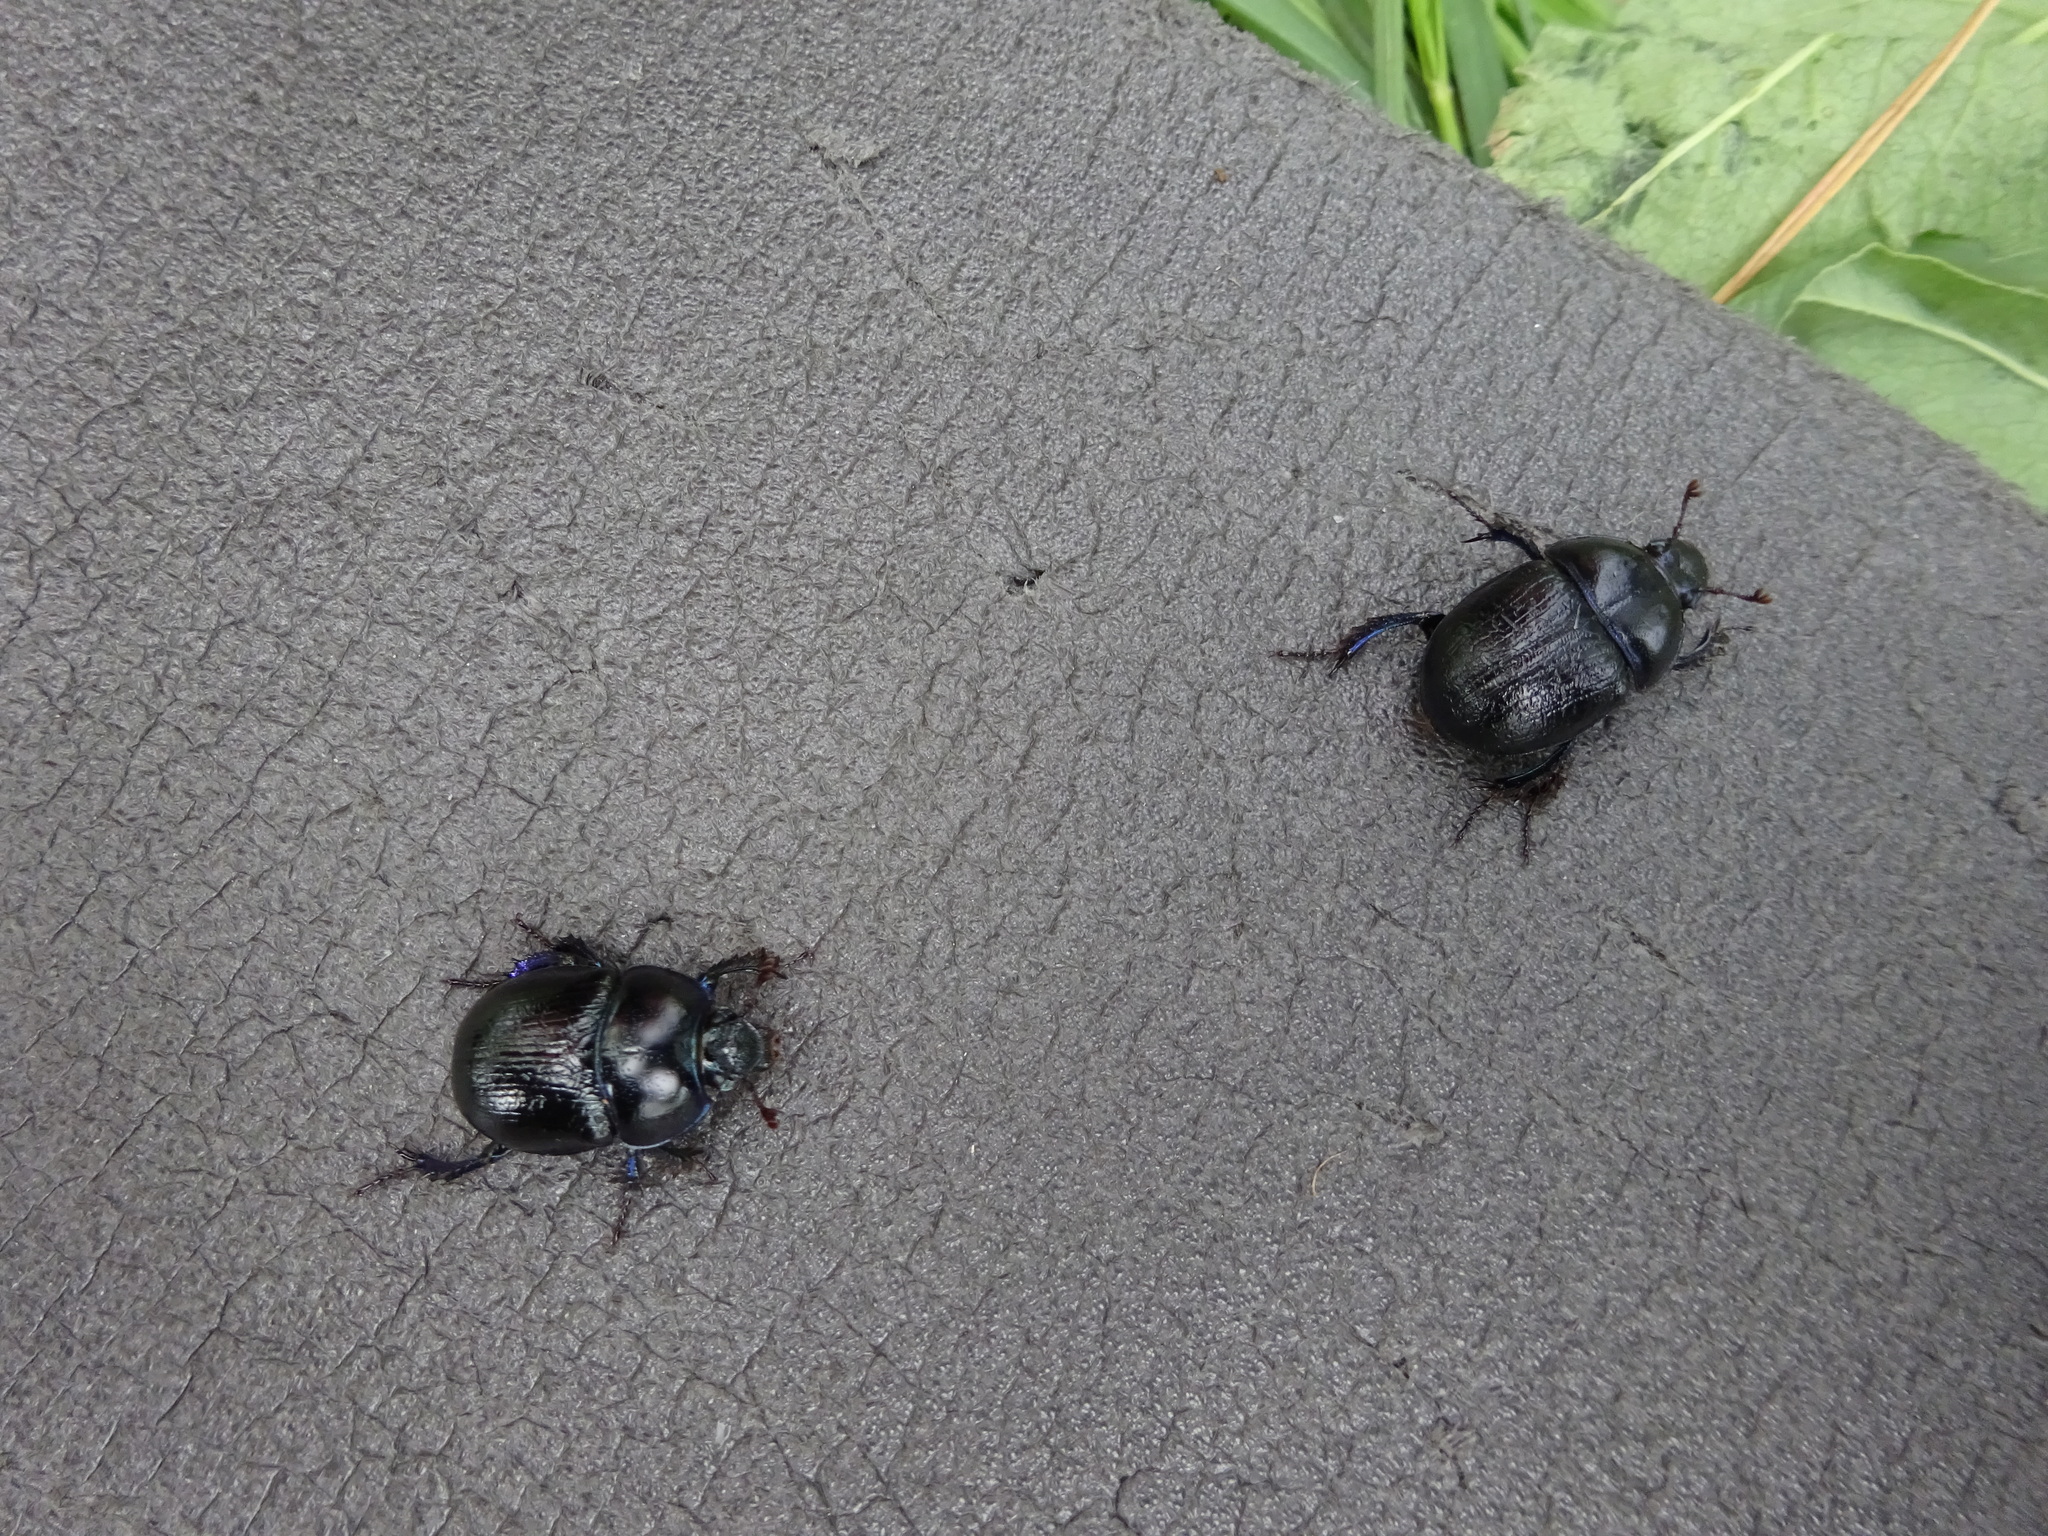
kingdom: Animalia
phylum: Arthropoda
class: Insecta
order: Coleoptera
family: Geotrupidae
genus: Anoplotrupes
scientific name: Anoplotrupes stercorosus
